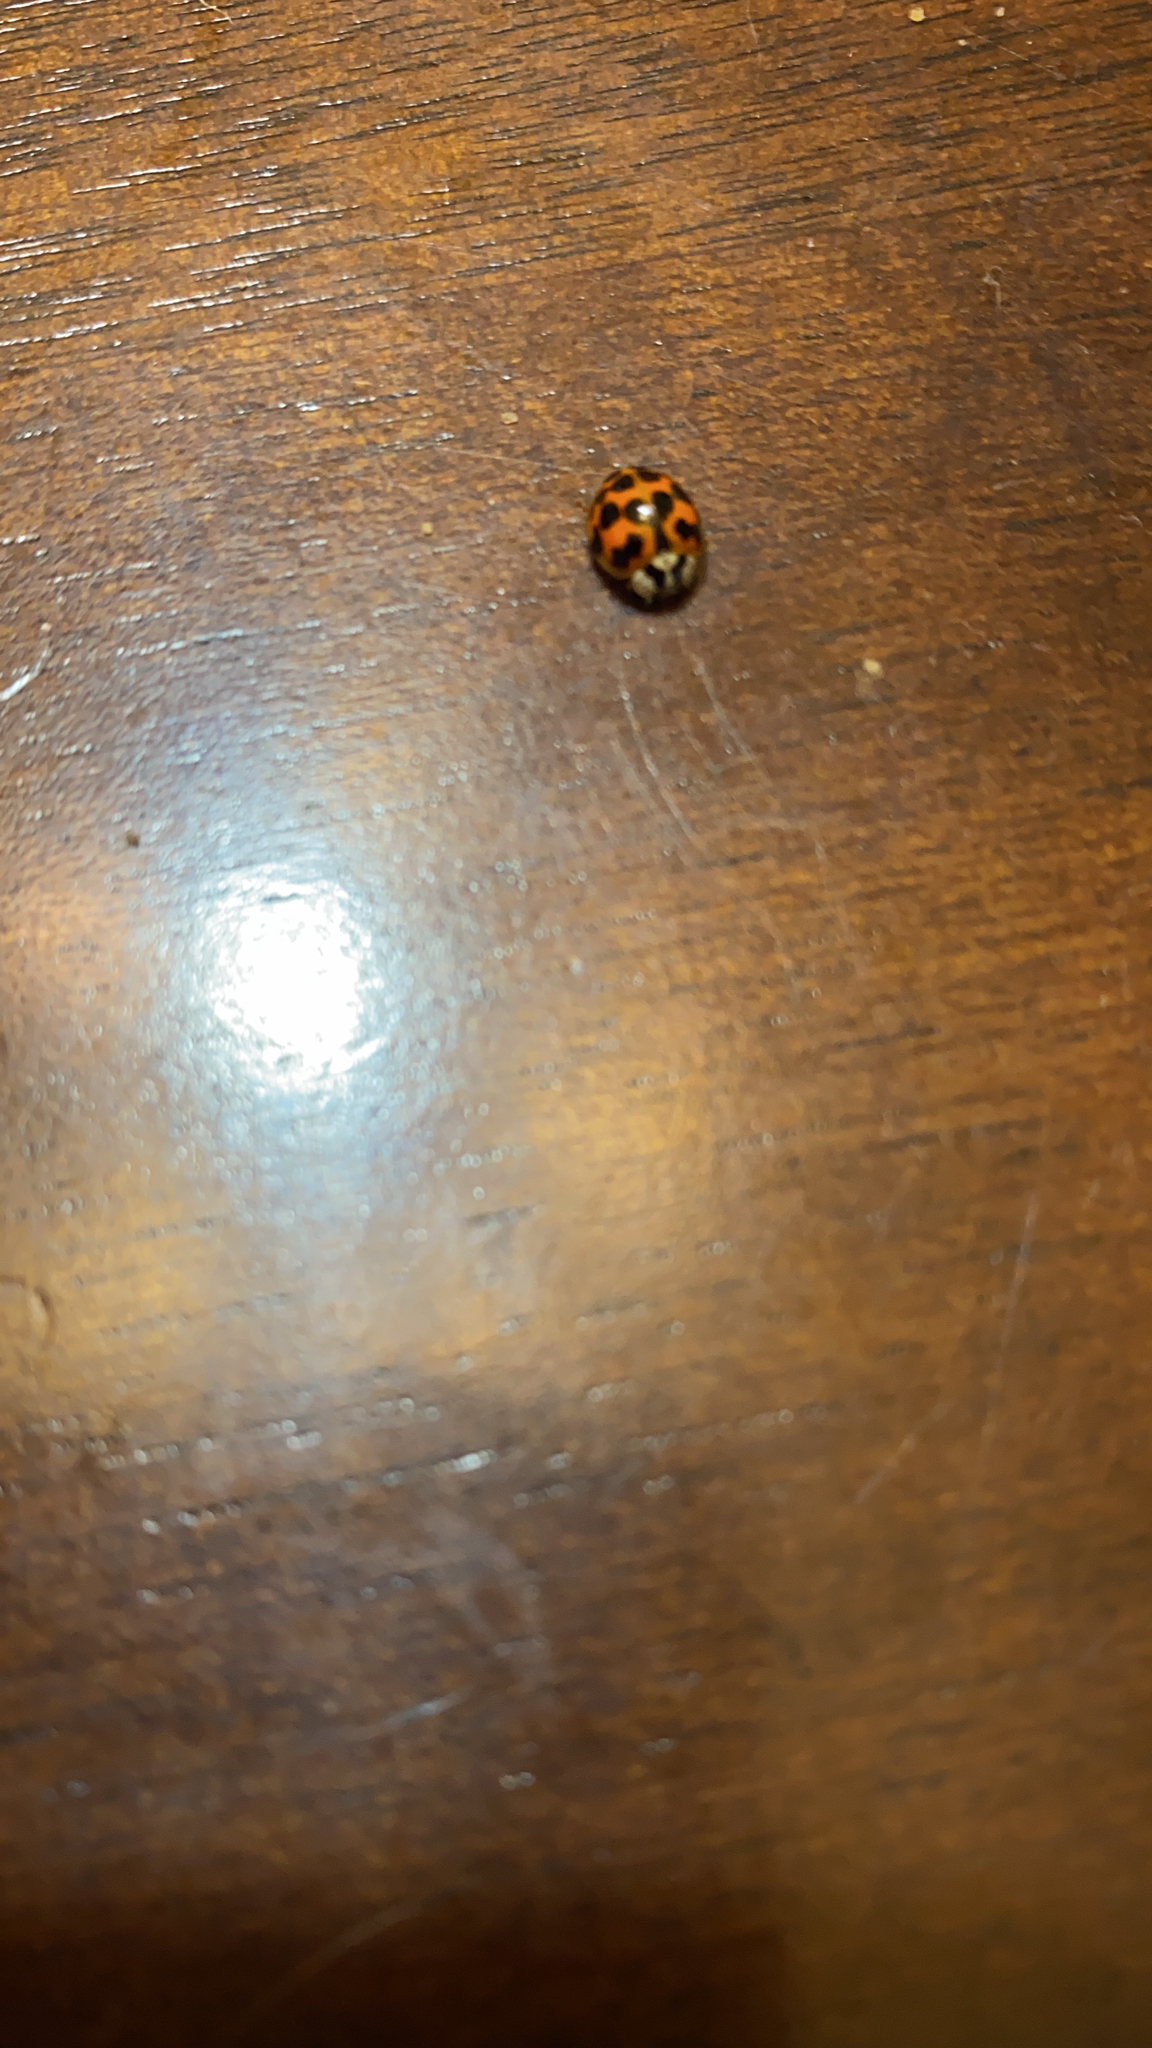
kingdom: Animalia
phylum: Arthropoda
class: Insecta
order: Coleoptera
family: Coccinellidae
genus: Harmonia
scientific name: Harmonia axyridis
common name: Harlequin ladybird
